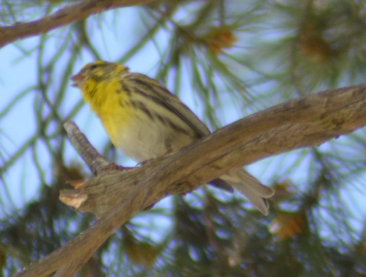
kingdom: Animalia
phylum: Chordata
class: Aves
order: Passeriformes
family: Fringillidae
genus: Serinus
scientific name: Serinus serinus
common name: European serin
